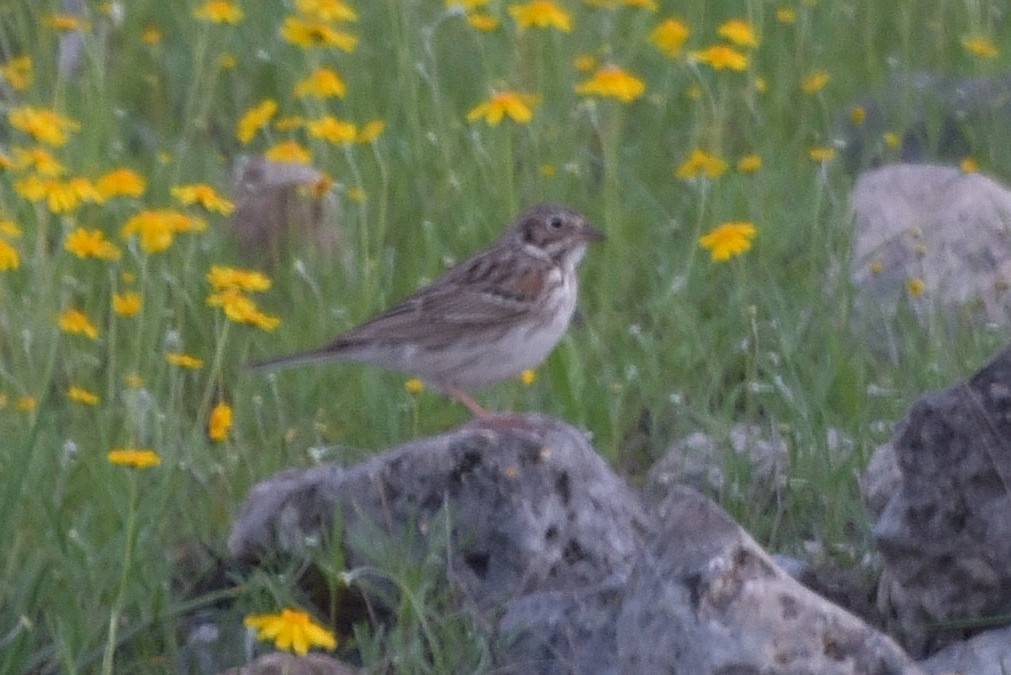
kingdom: Animalia
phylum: Chordata
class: Aves
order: Passeriformes
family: Passerellidae
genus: Pooecetes
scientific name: Pooecetes gramineus
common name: Vesper sparrow
